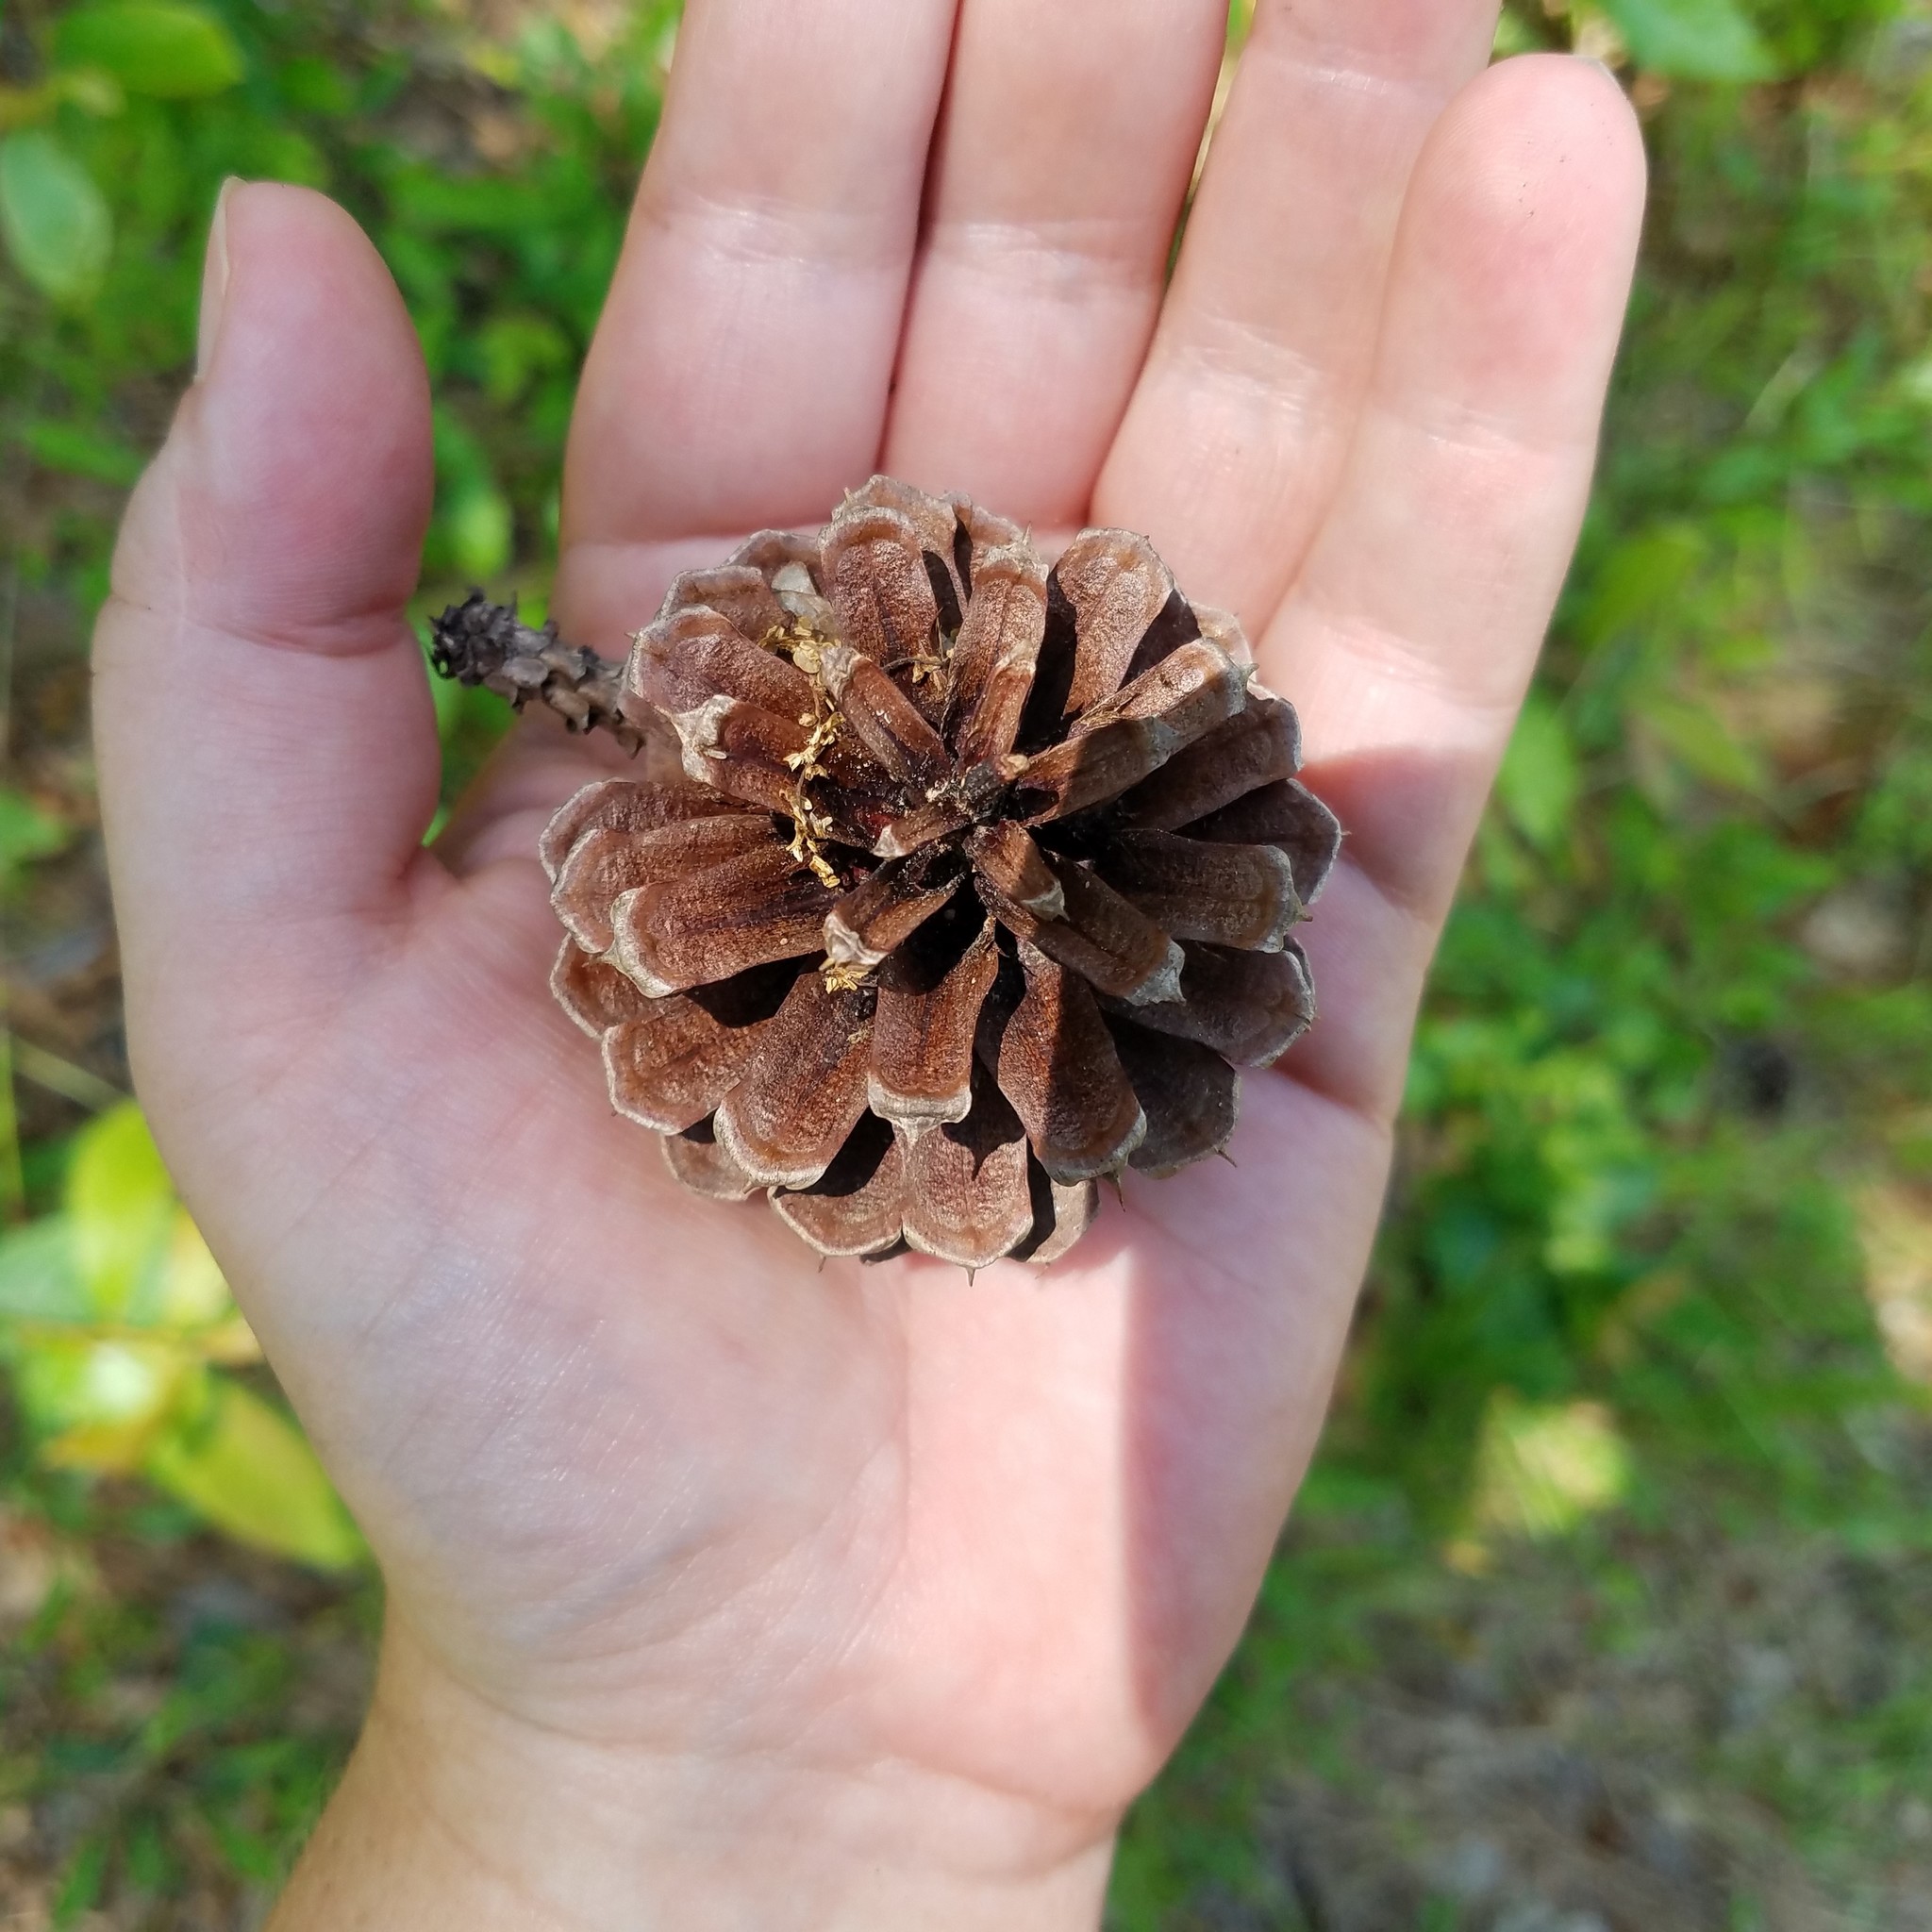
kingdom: Plantae
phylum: Tracheophyta
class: Pinopsida
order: Pinales
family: Pinaceae
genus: Pinus
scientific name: Pinus rigida
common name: Pitch pine
